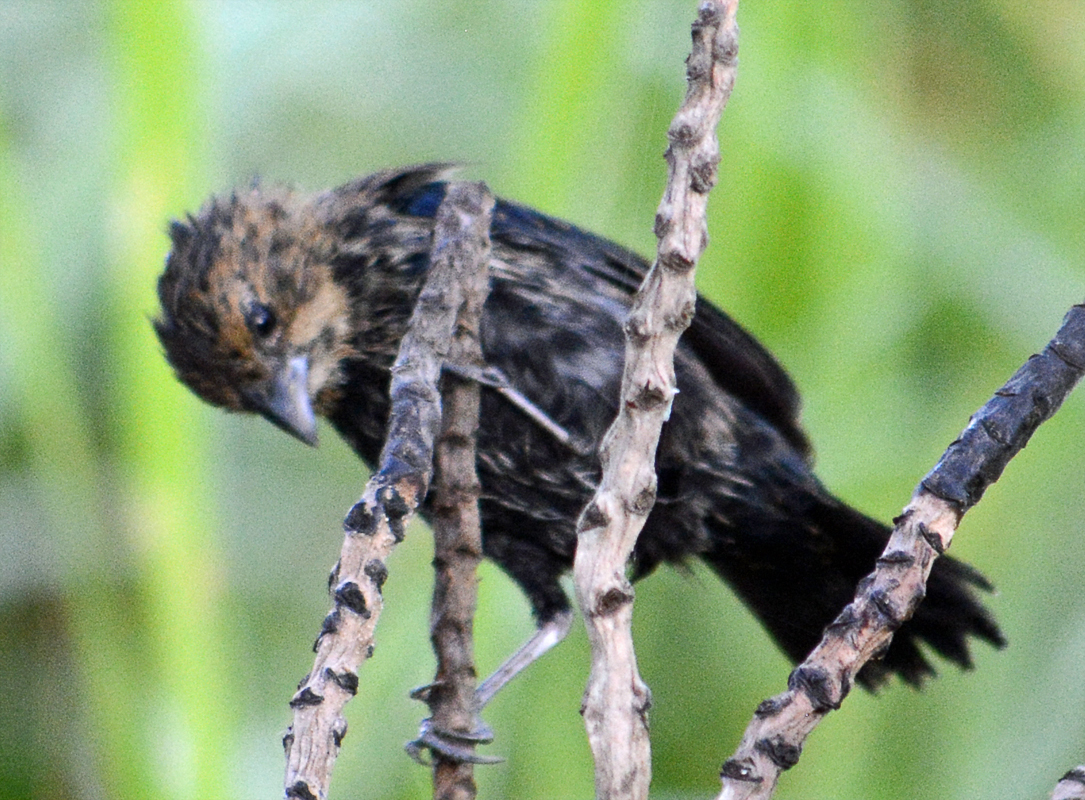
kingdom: Animalia
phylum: Chordata
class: Aves
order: Passeriformes
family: Thraupidae
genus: Volatinia
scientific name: Volatinia jacarina
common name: Blue-black grassquit
